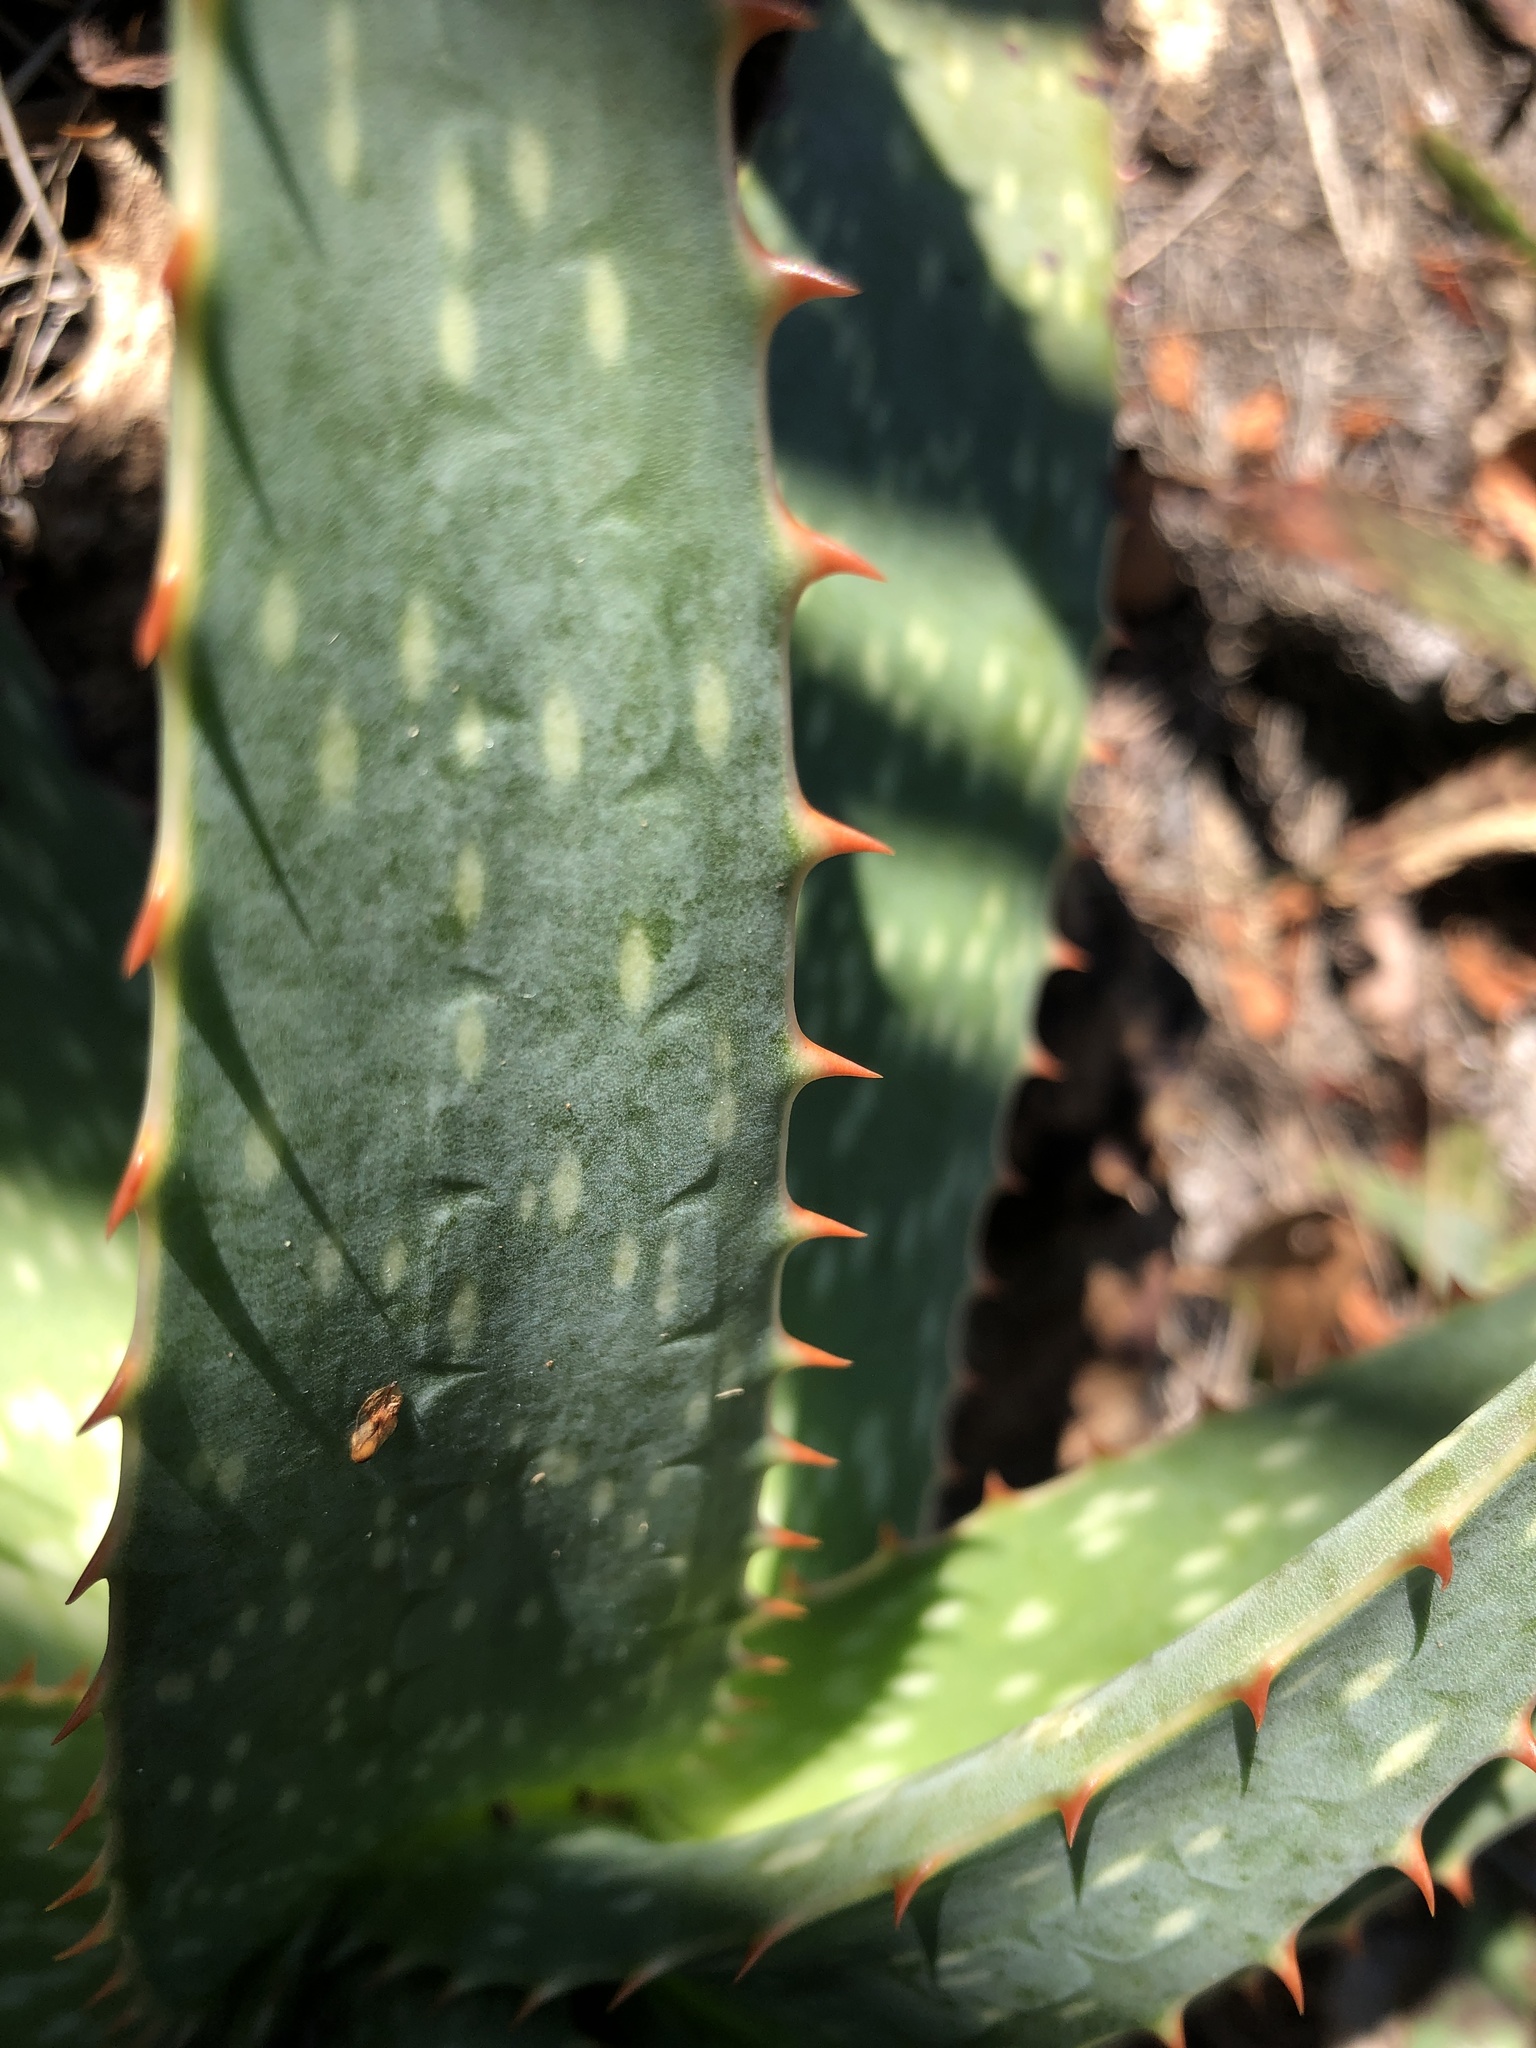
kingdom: Plantae
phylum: Tracheophyta
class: Liliopsida
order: Asparagales
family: Asphodelaceae
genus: Aloe
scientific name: Aloe maculata
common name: Broadleaf aloe
